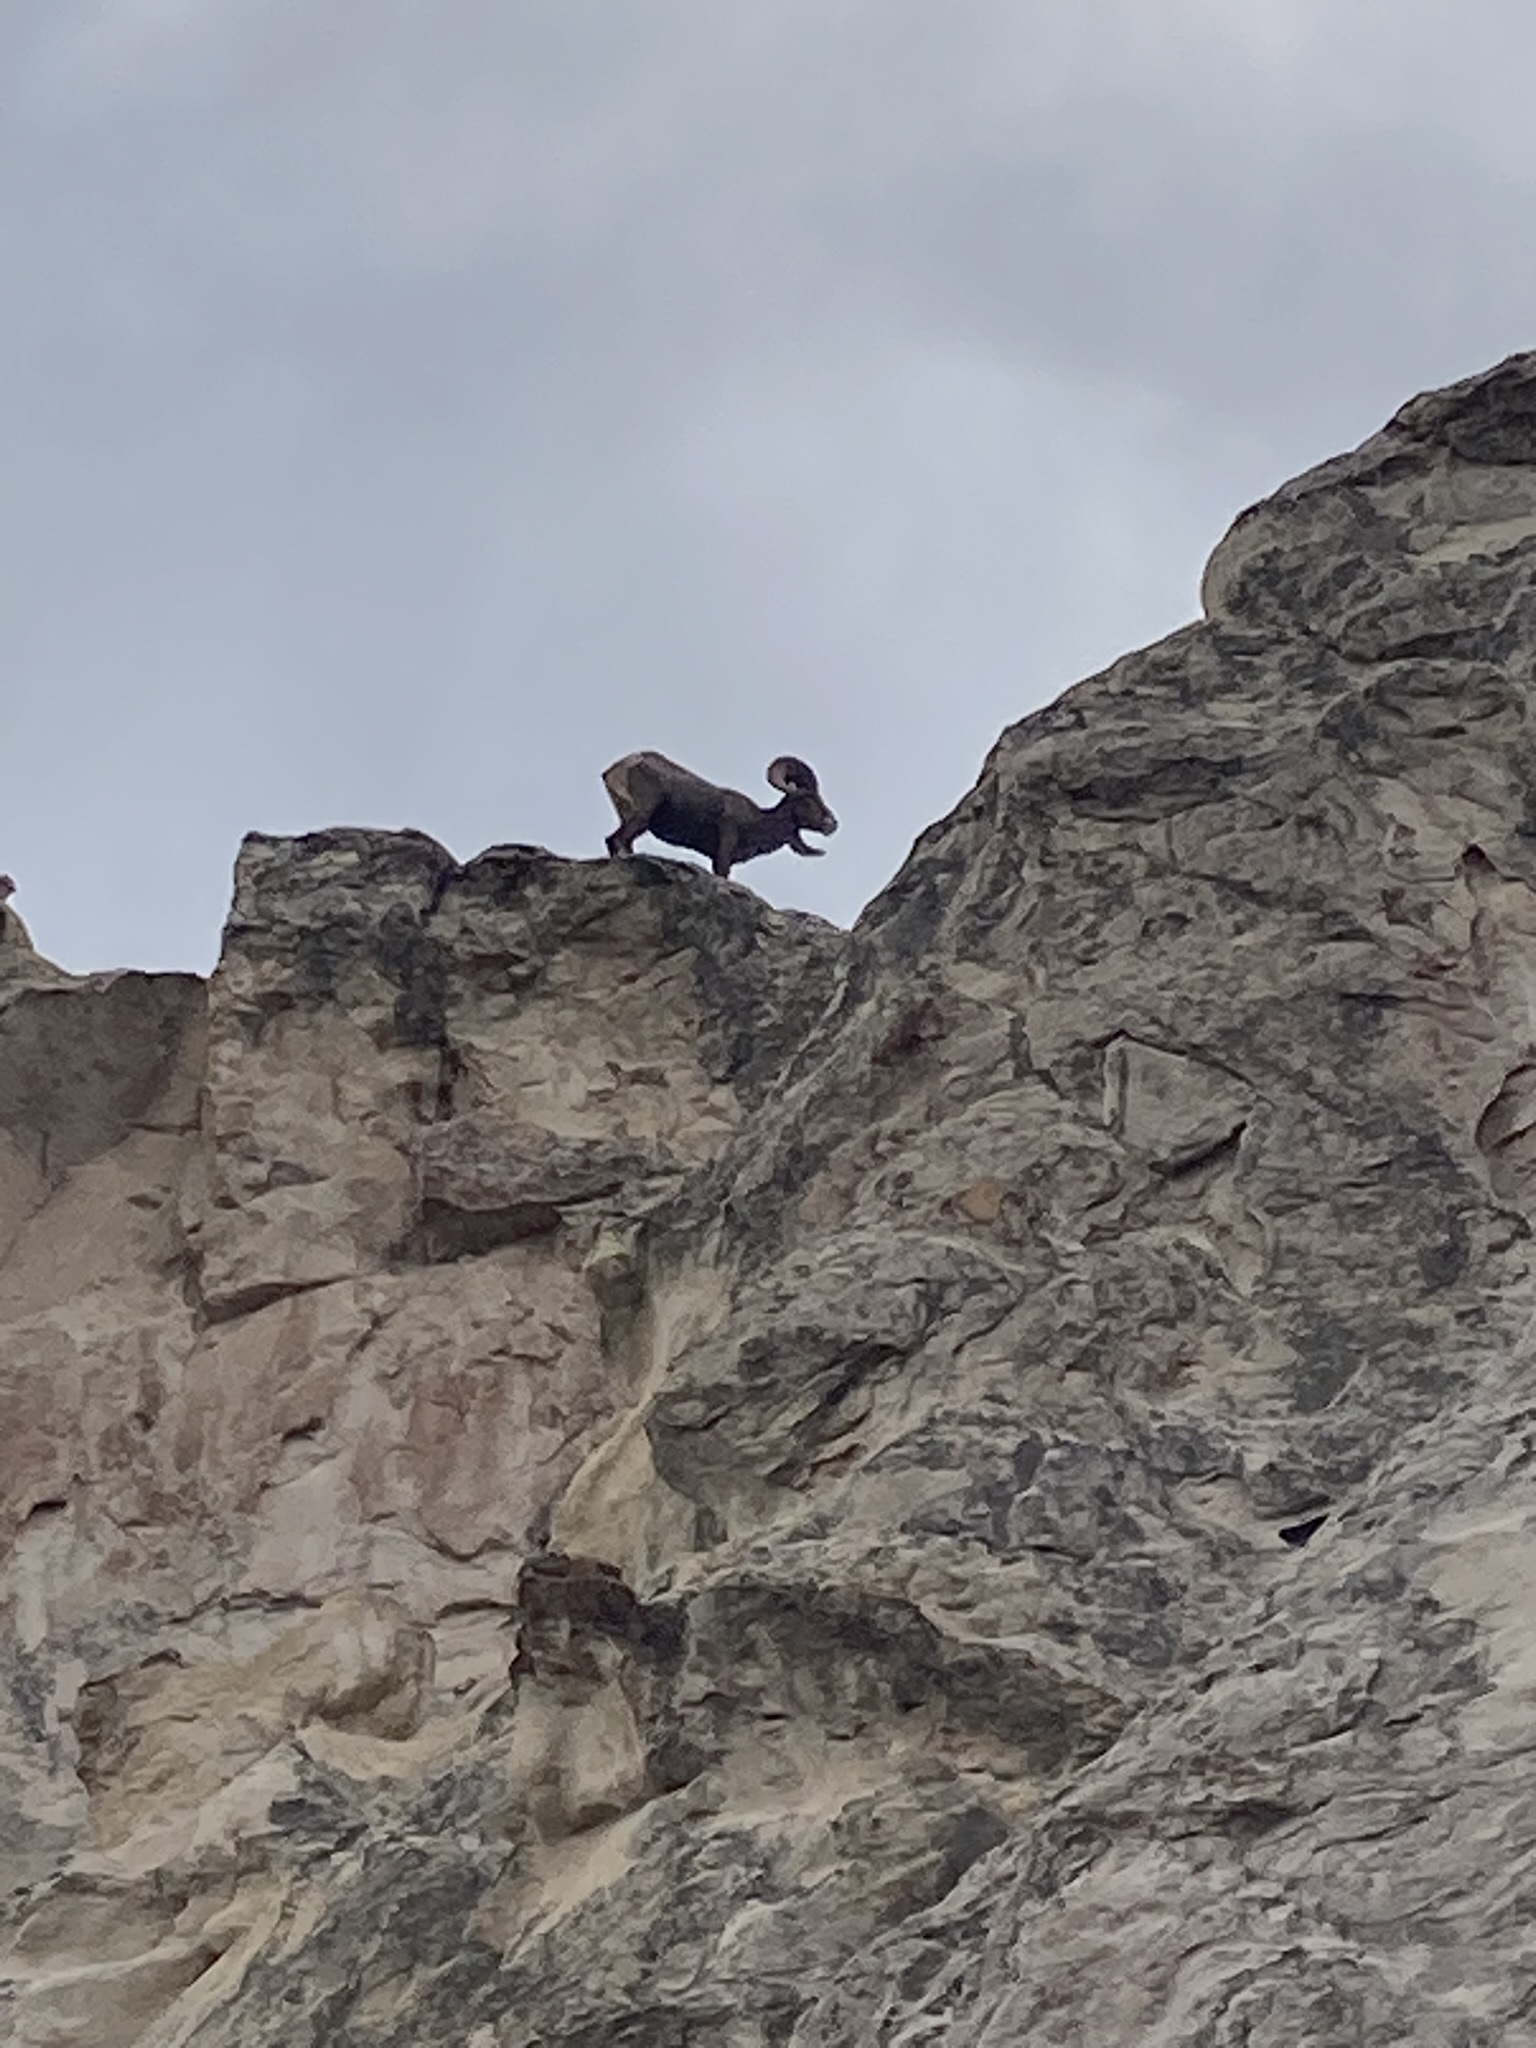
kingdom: Animalia
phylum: Chordata
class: Mammalia
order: Artiodactyla
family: Bovidae
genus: Ovis
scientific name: Ovis canadensis
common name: Bighorn sheep
